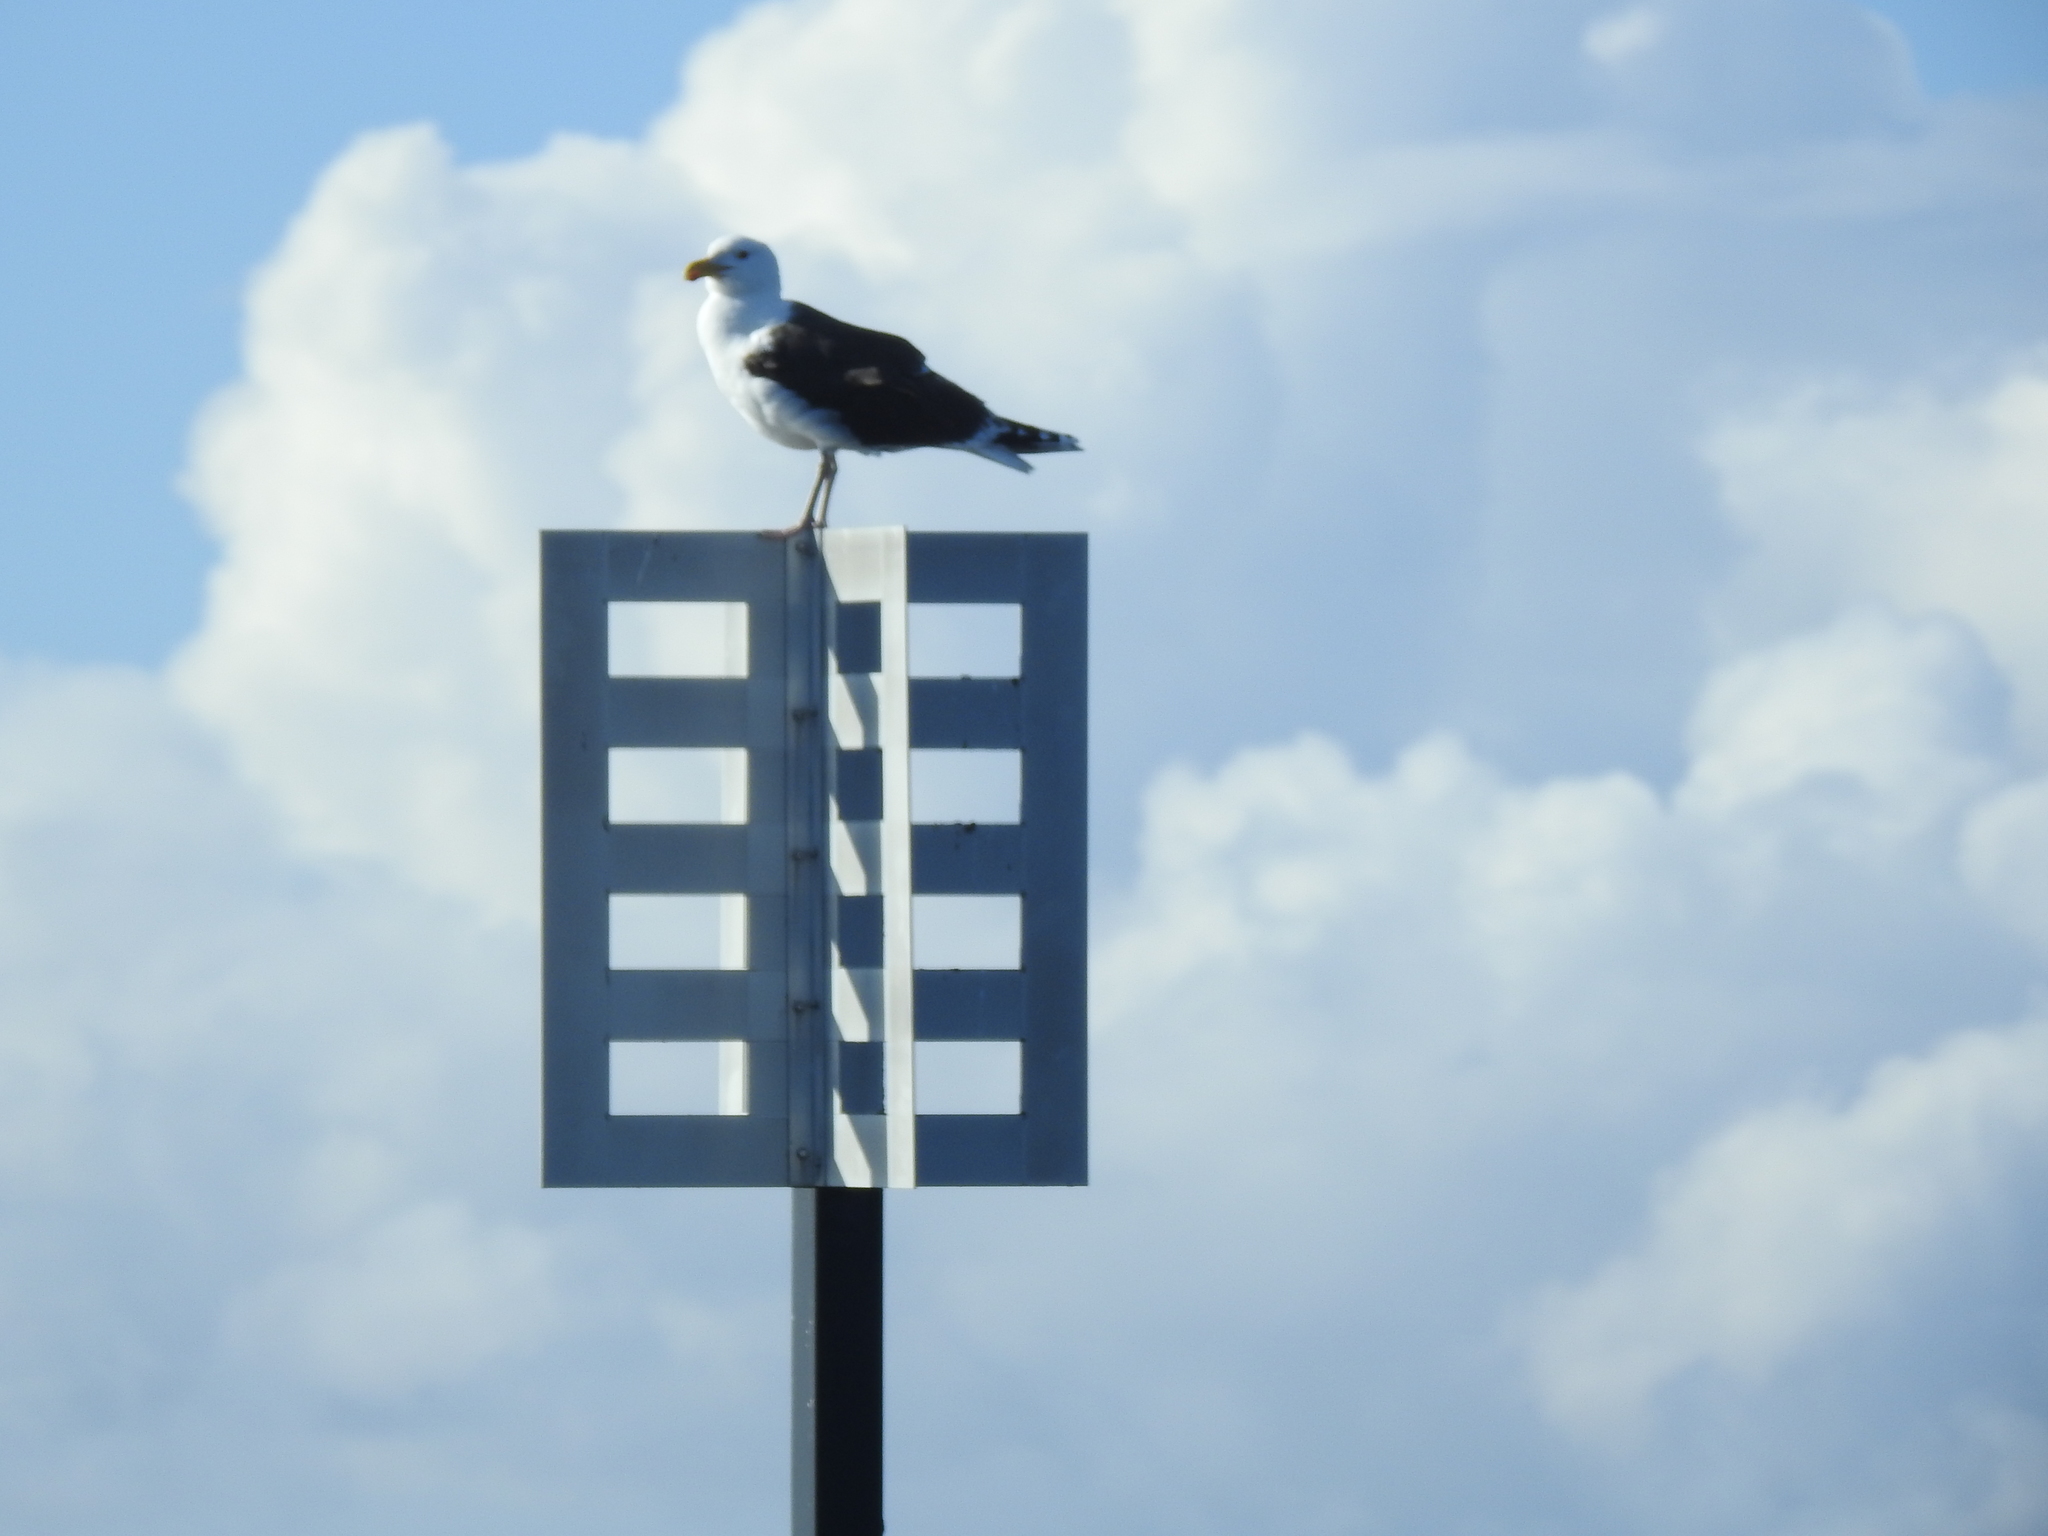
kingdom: Animalia
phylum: Chordata
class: Aves
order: Charadriiformes
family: Laridae
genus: Larus
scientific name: Larus marinus
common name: Great black-backed gull
